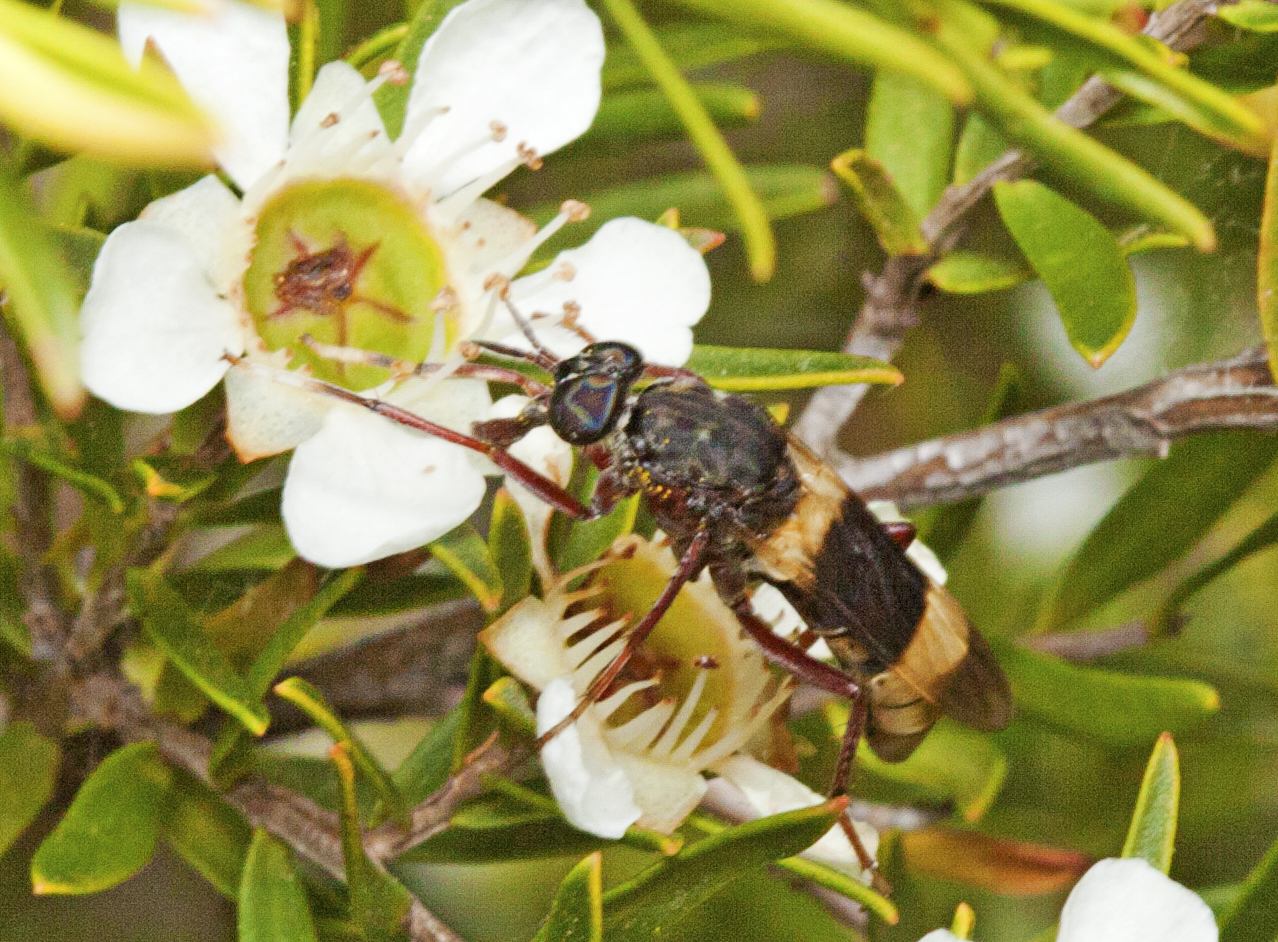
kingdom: Animalia
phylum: Arthropoda
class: Insecta
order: Diptera
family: Therevidae
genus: Pipinnipons
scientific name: Pipinnipons fascipennis
